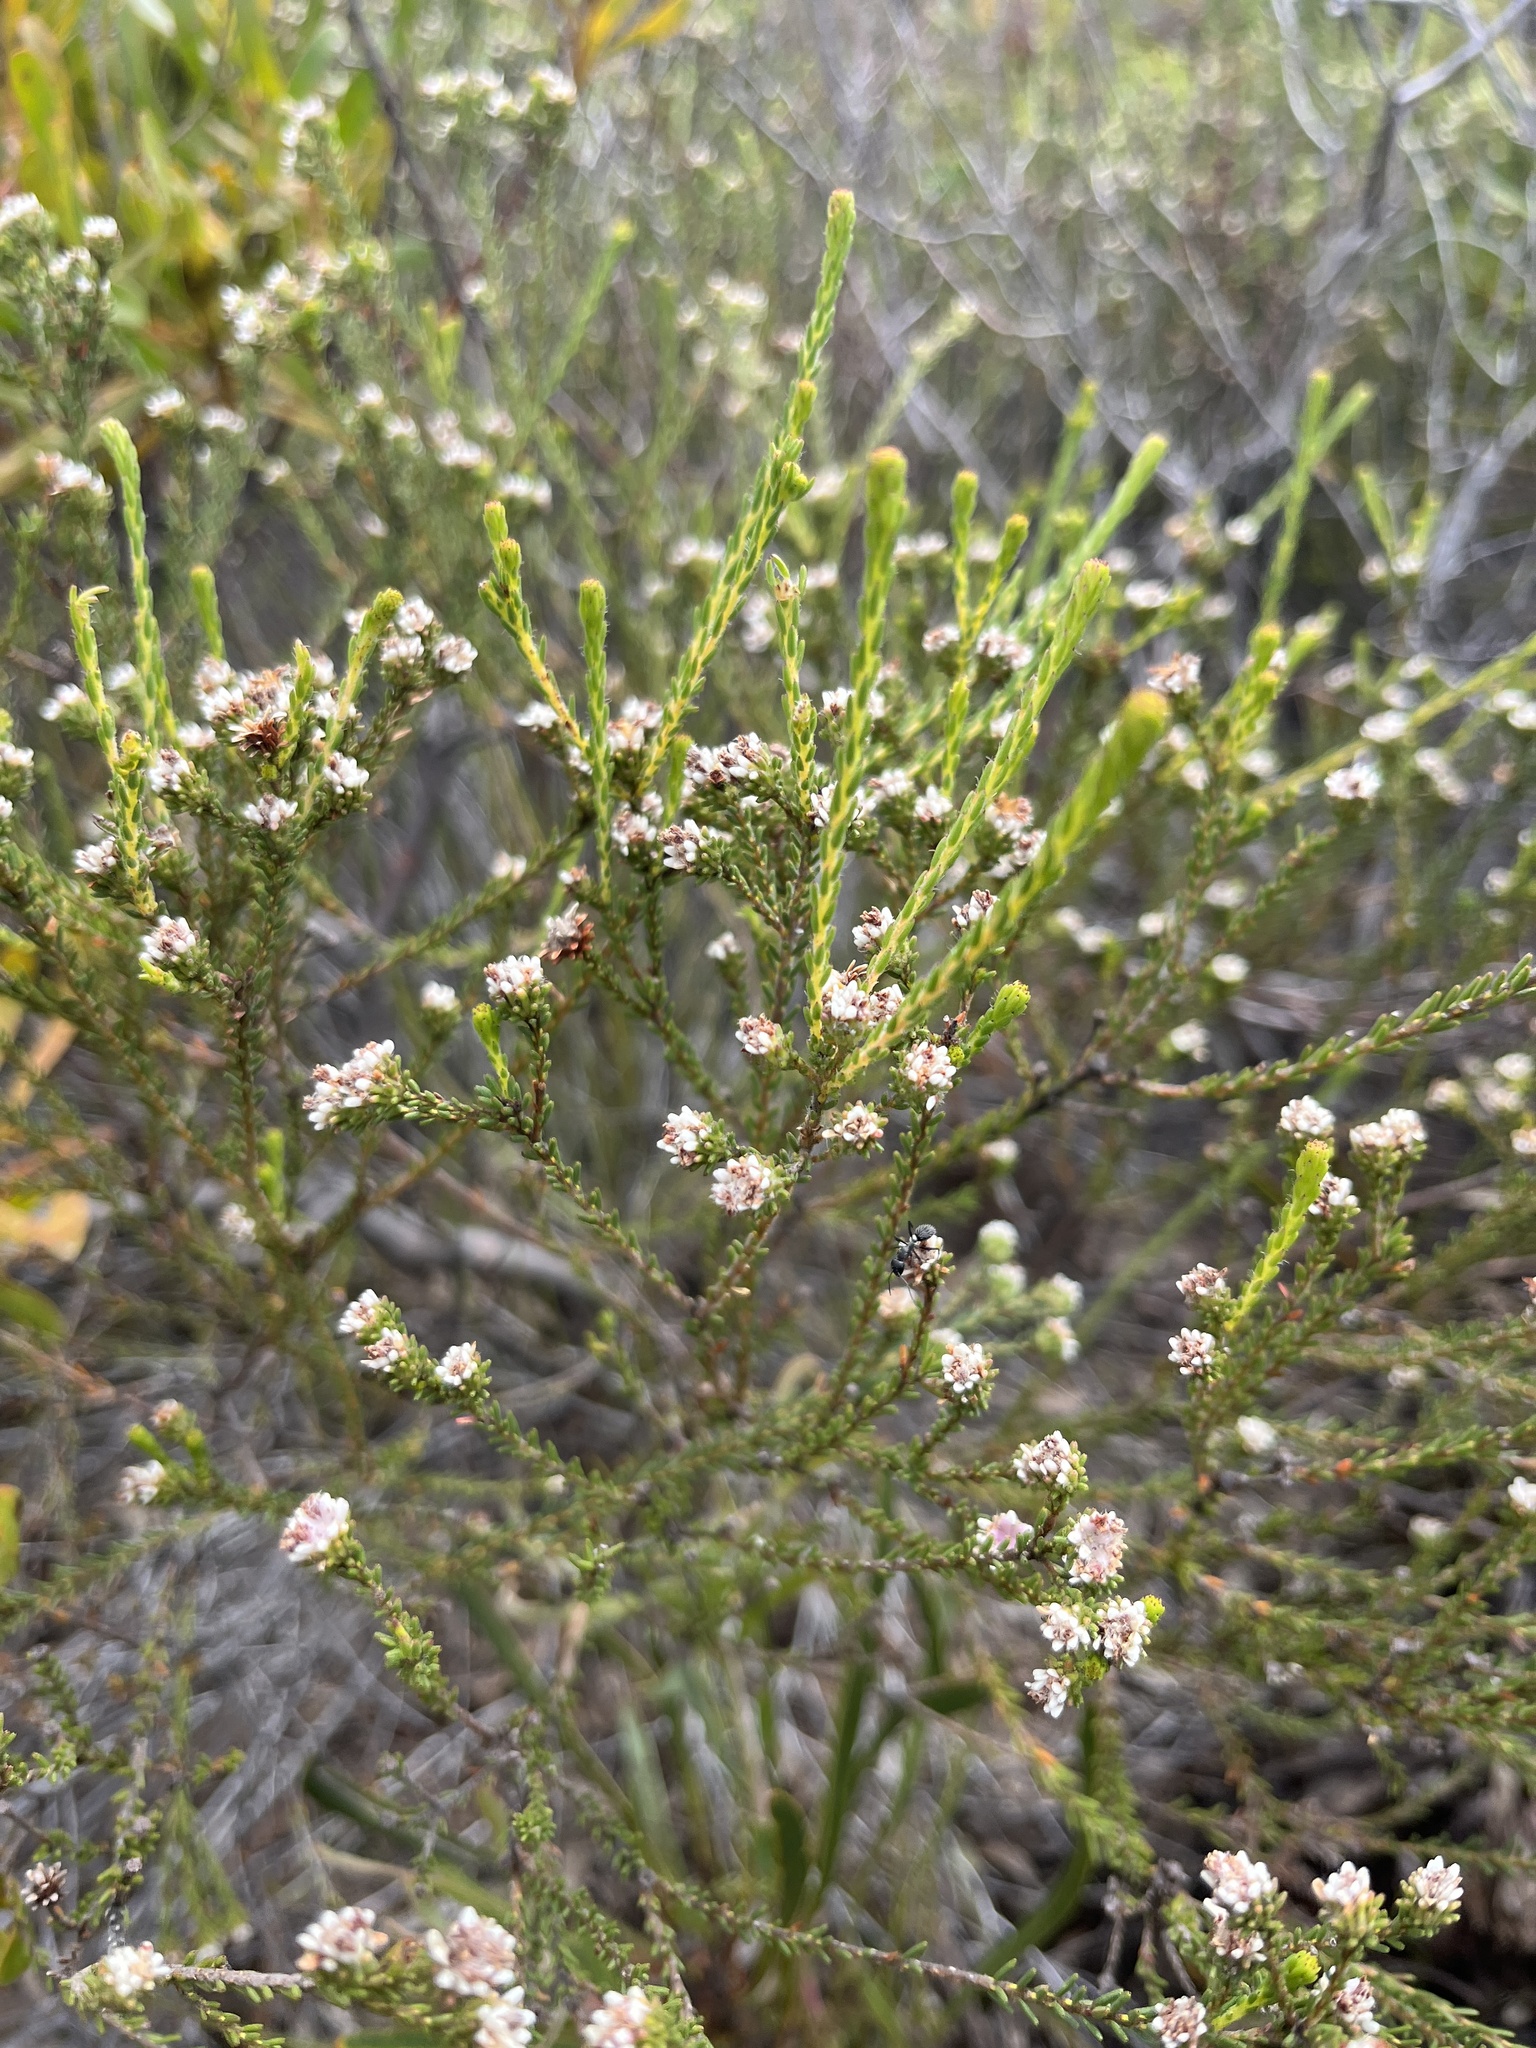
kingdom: Plantae
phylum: Tracheophyta
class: Magnoliopsida
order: Bruniales
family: Bruniaceae
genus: Staavia
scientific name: Staavia radiata
